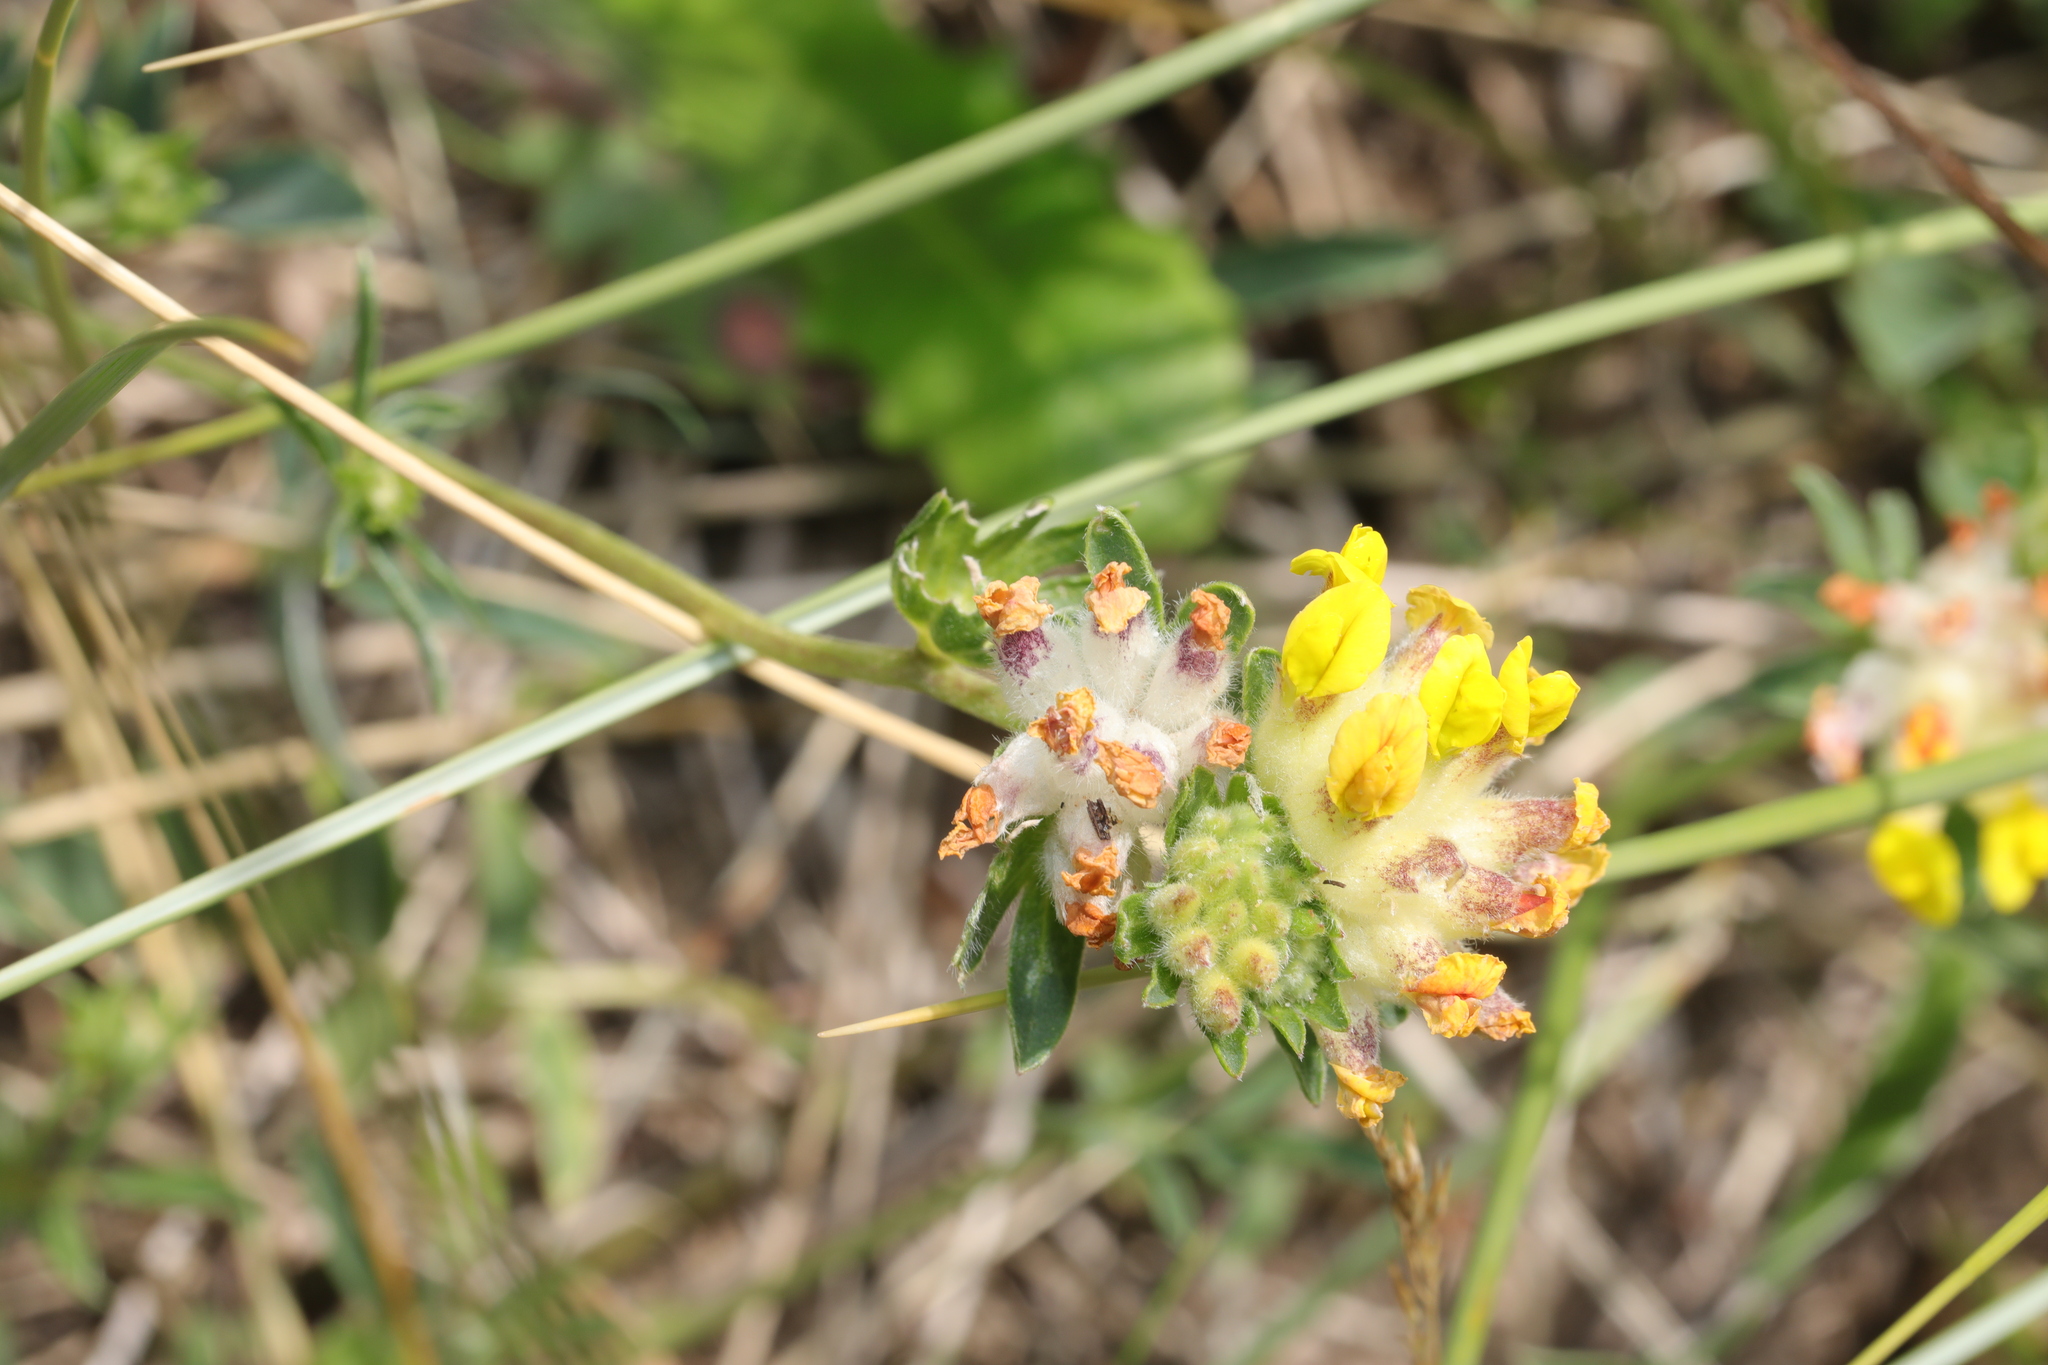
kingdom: Plantae
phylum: Tracheophyta
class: Magnoliopsida
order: Fabales
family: Fabaceae
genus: Anthyllis
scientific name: Anthyllis vulneraria
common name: Kidney vetch
